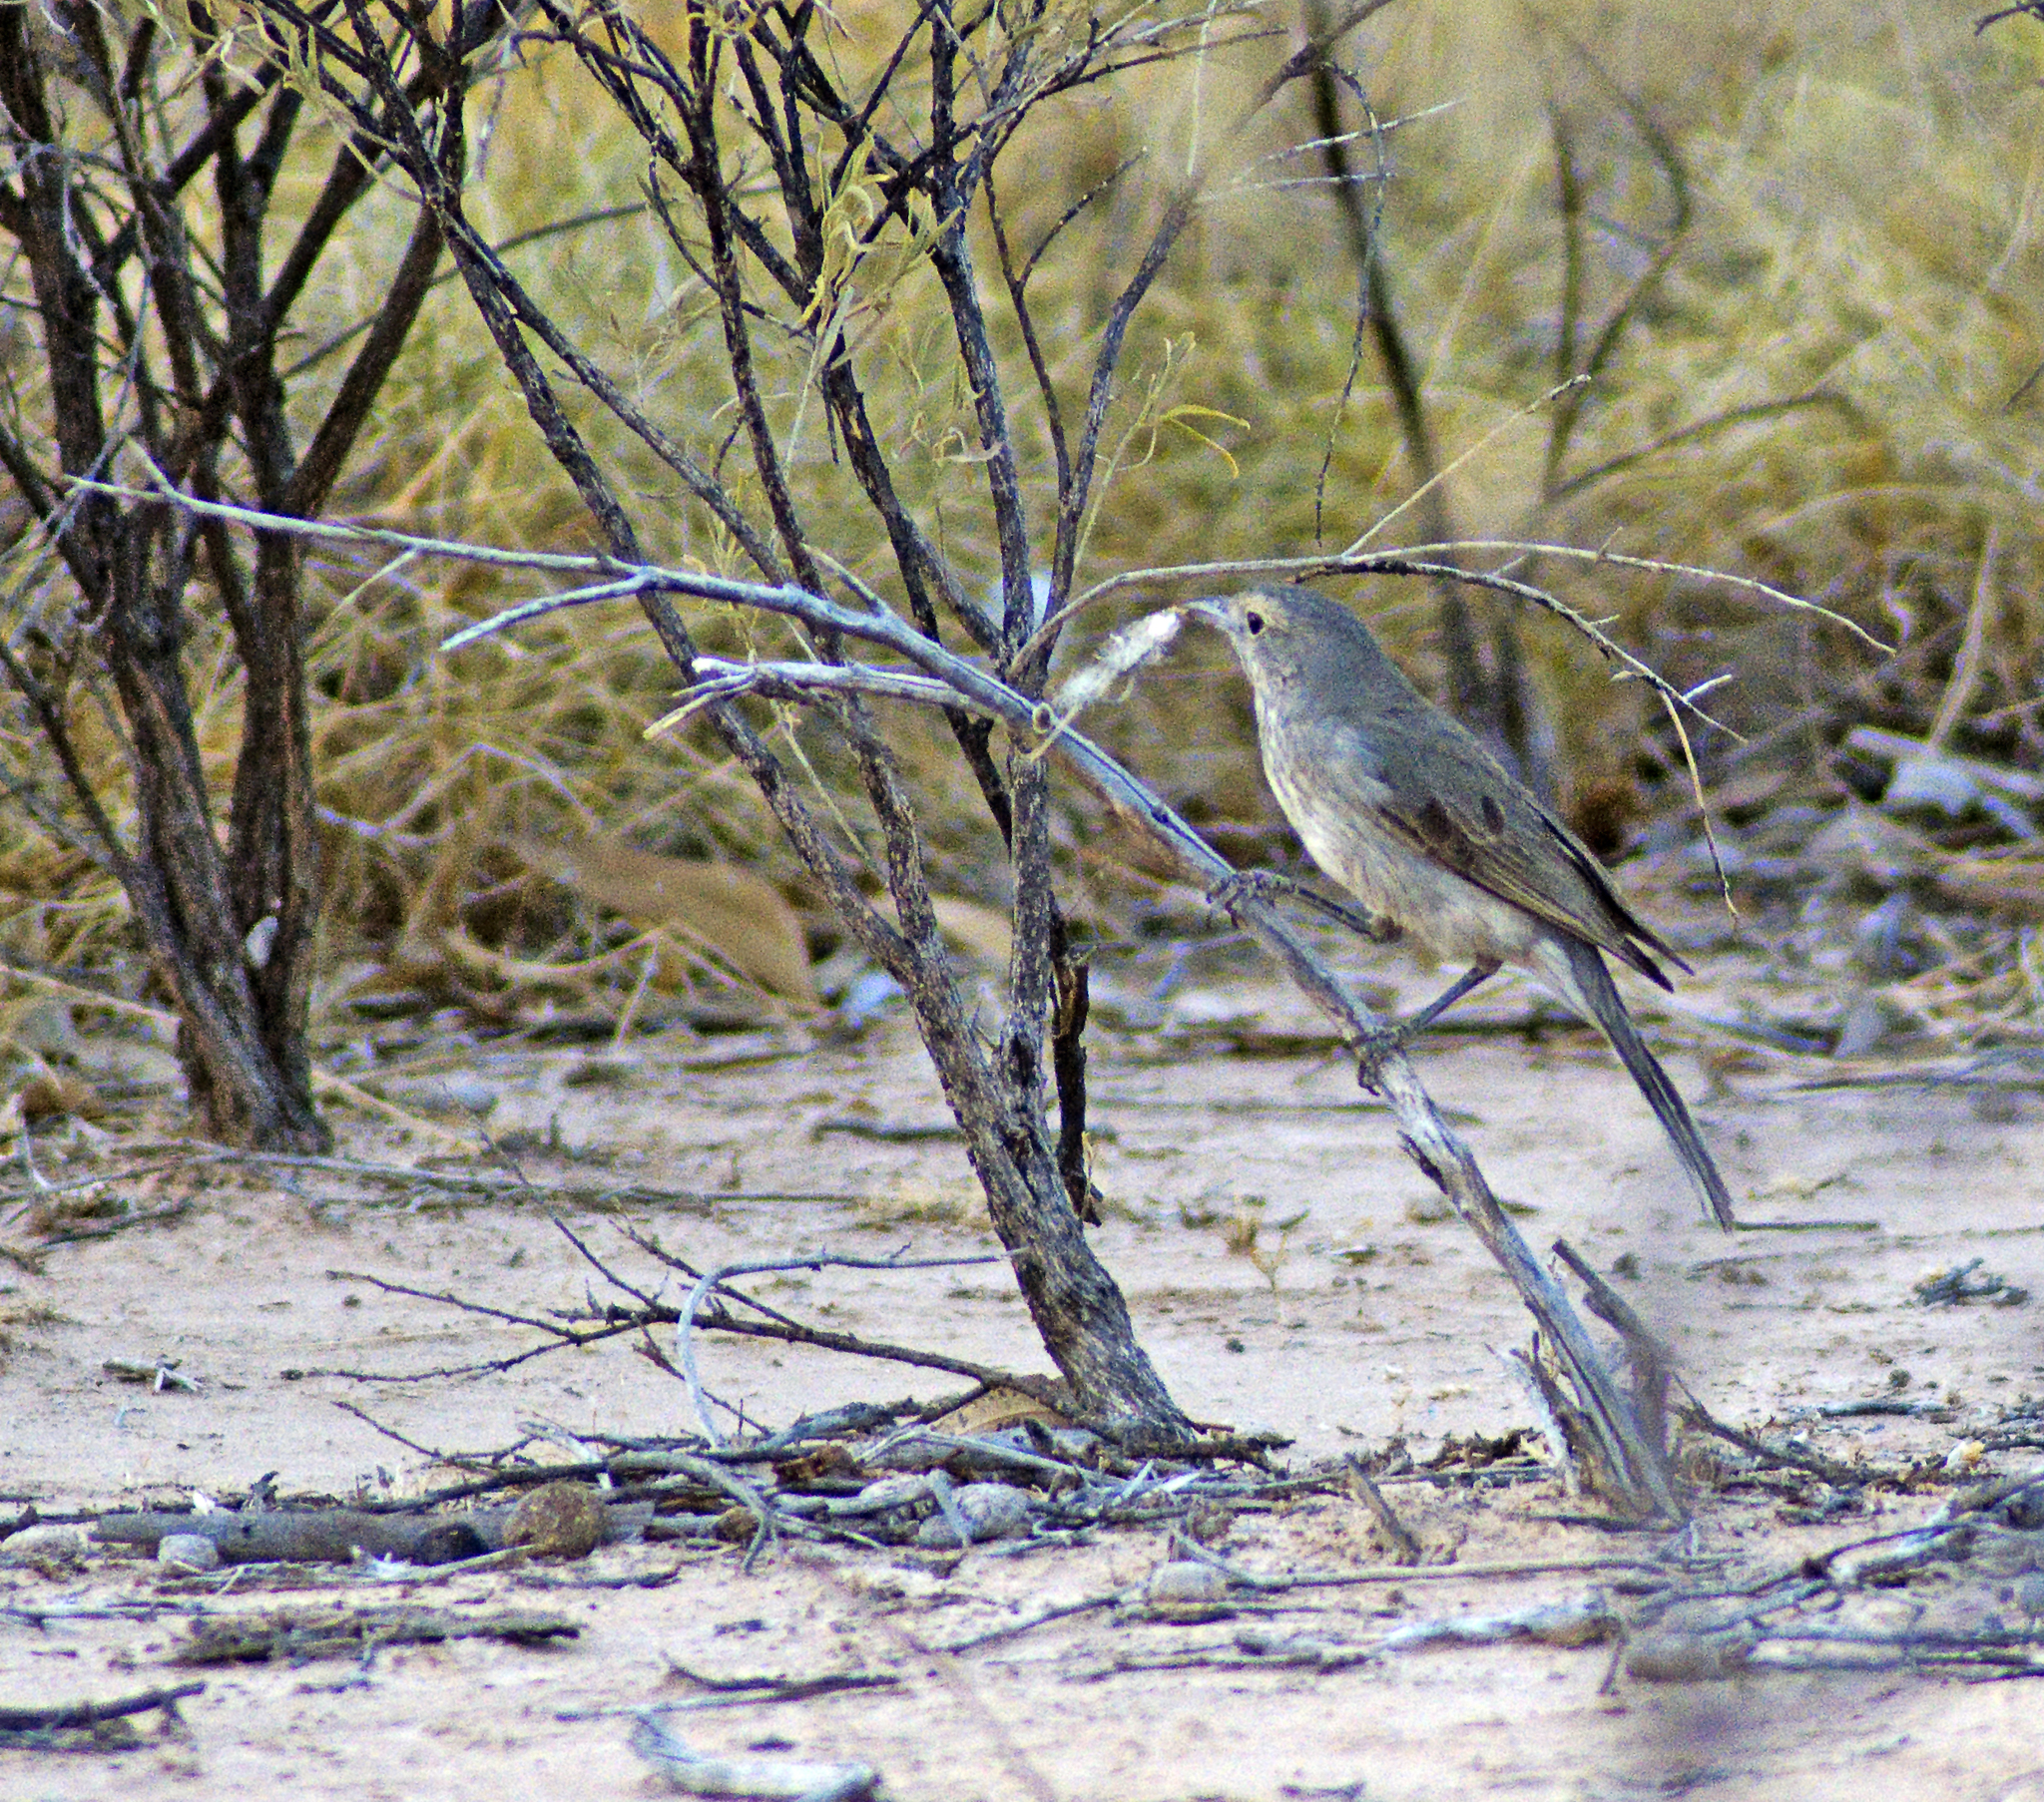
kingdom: Animalia
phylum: Chordata
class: Aves
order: Passeriformes
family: Pachycephalidae
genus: Colluricincla
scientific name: Colluricincla harmonica
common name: Grey shrikethrush
